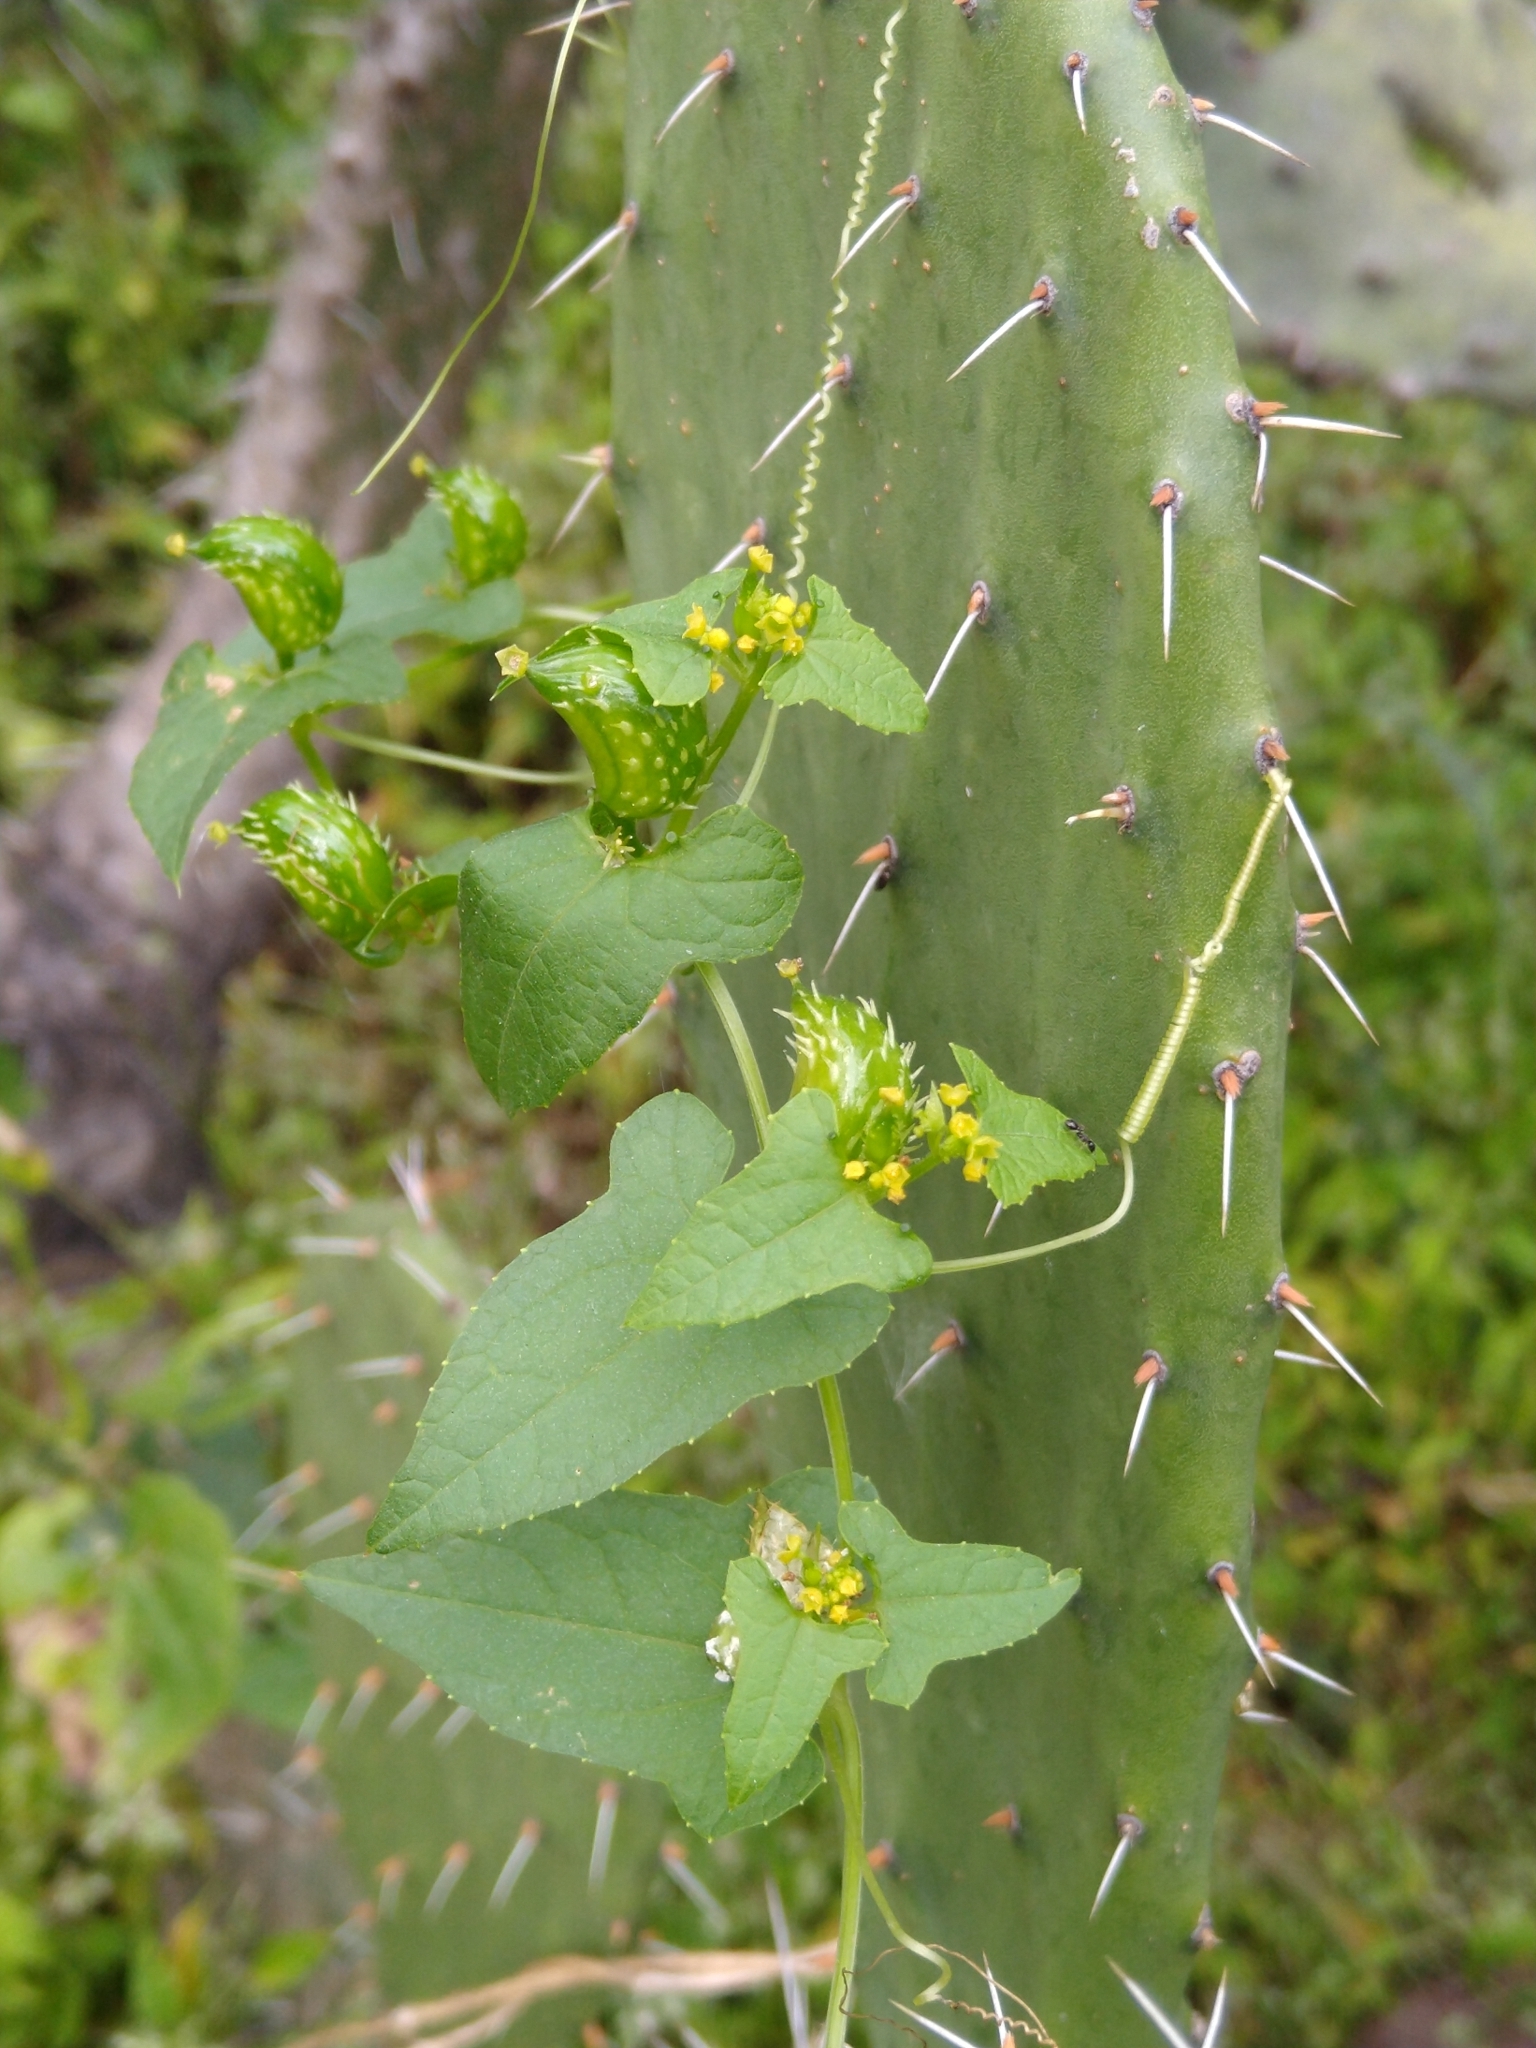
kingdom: Plantae
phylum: Tracheophyta
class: Magnoliopsida
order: Cucurbitales
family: Cucurbitaceae
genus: Cyclanthera
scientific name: Cyclanthera hastata
